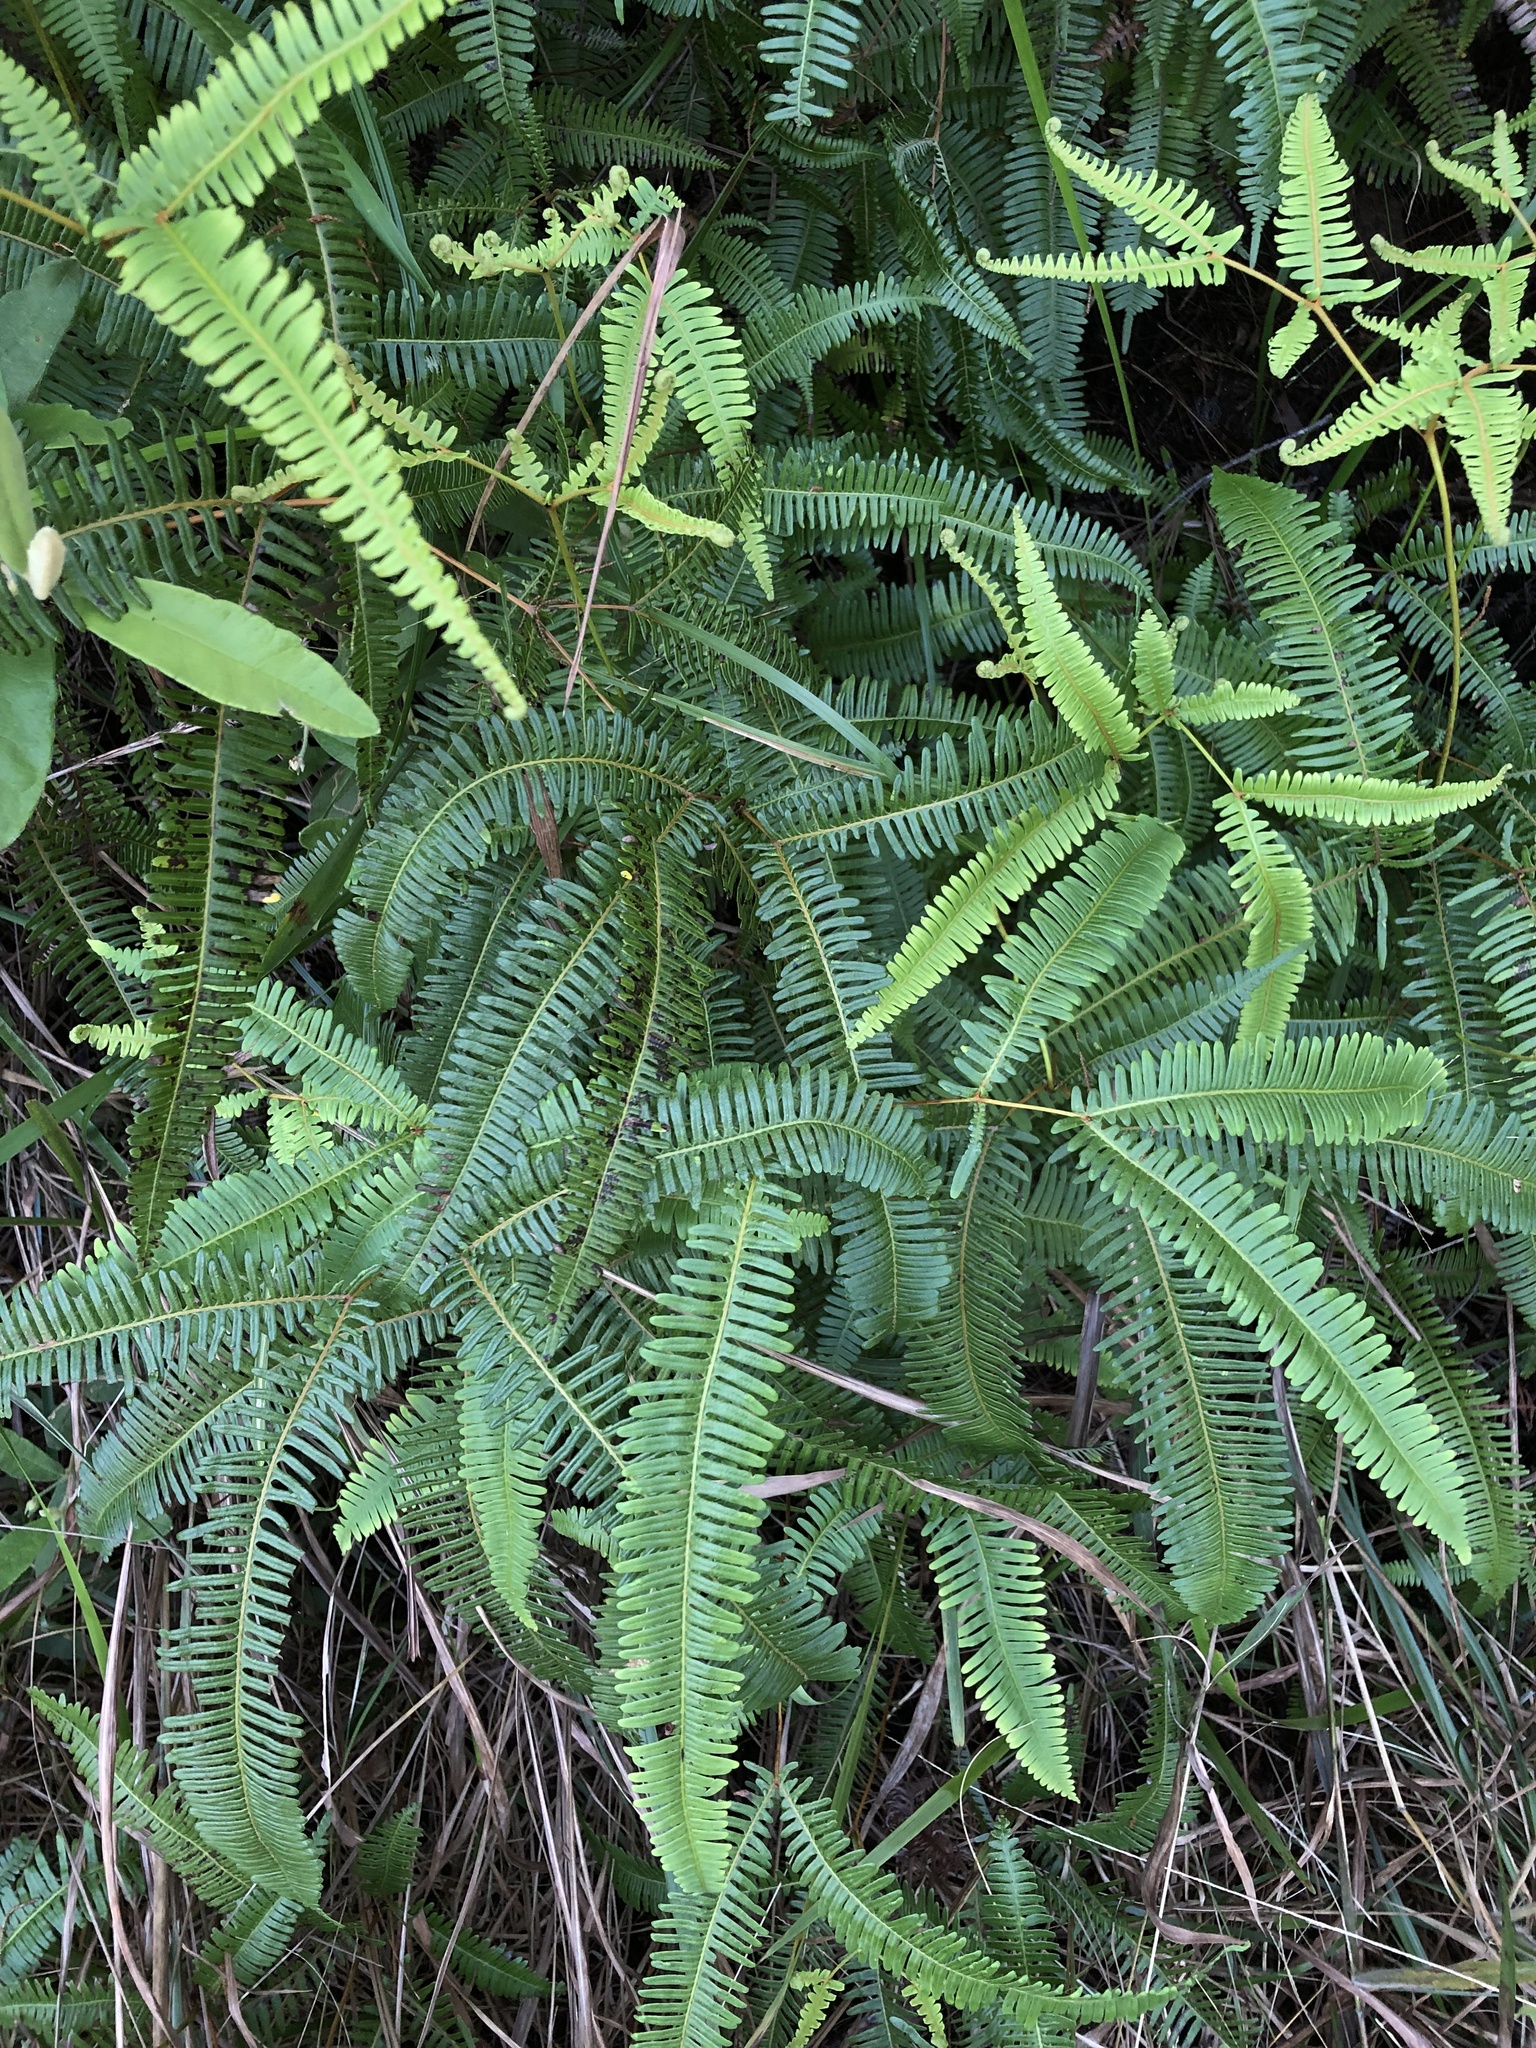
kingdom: Plantae
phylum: Tracheophyta
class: Polypodiopsida
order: Gleicheniales
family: Gleicheniaceae
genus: Dicranopteris
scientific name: Dicranopteris linearis
